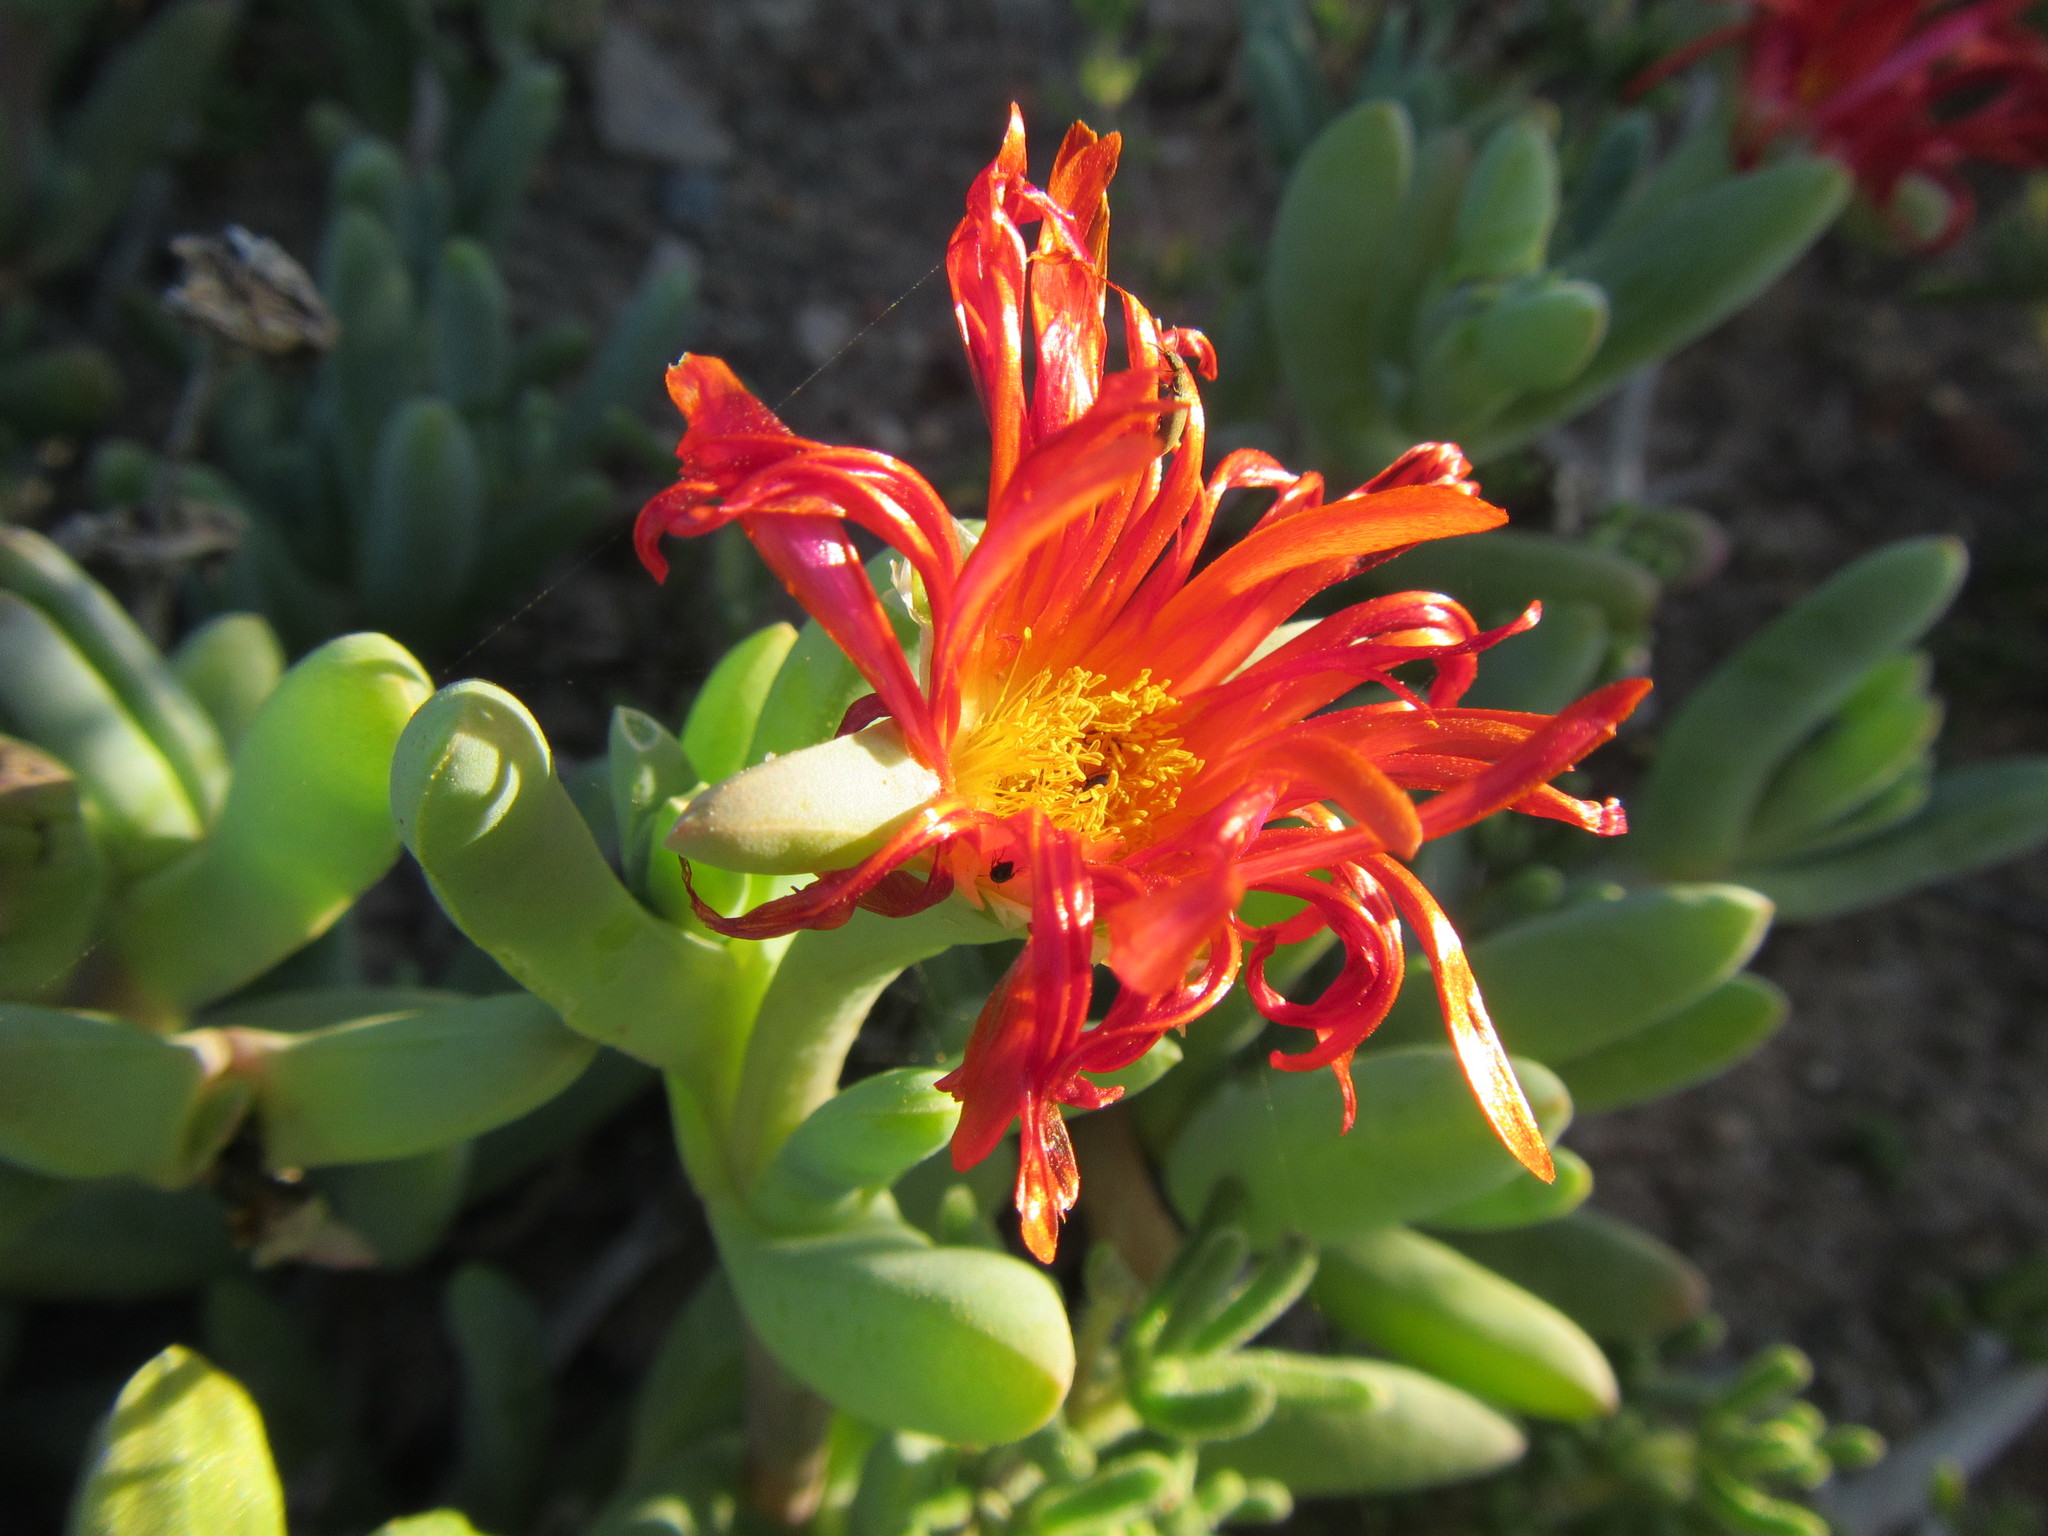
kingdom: Plantae
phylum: Tracheophyta
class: Magnoliopsida
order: Caryophyllales
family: Aizoaceae
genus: Malephora
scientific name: Malephora crocea
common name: Coppery mesemb
